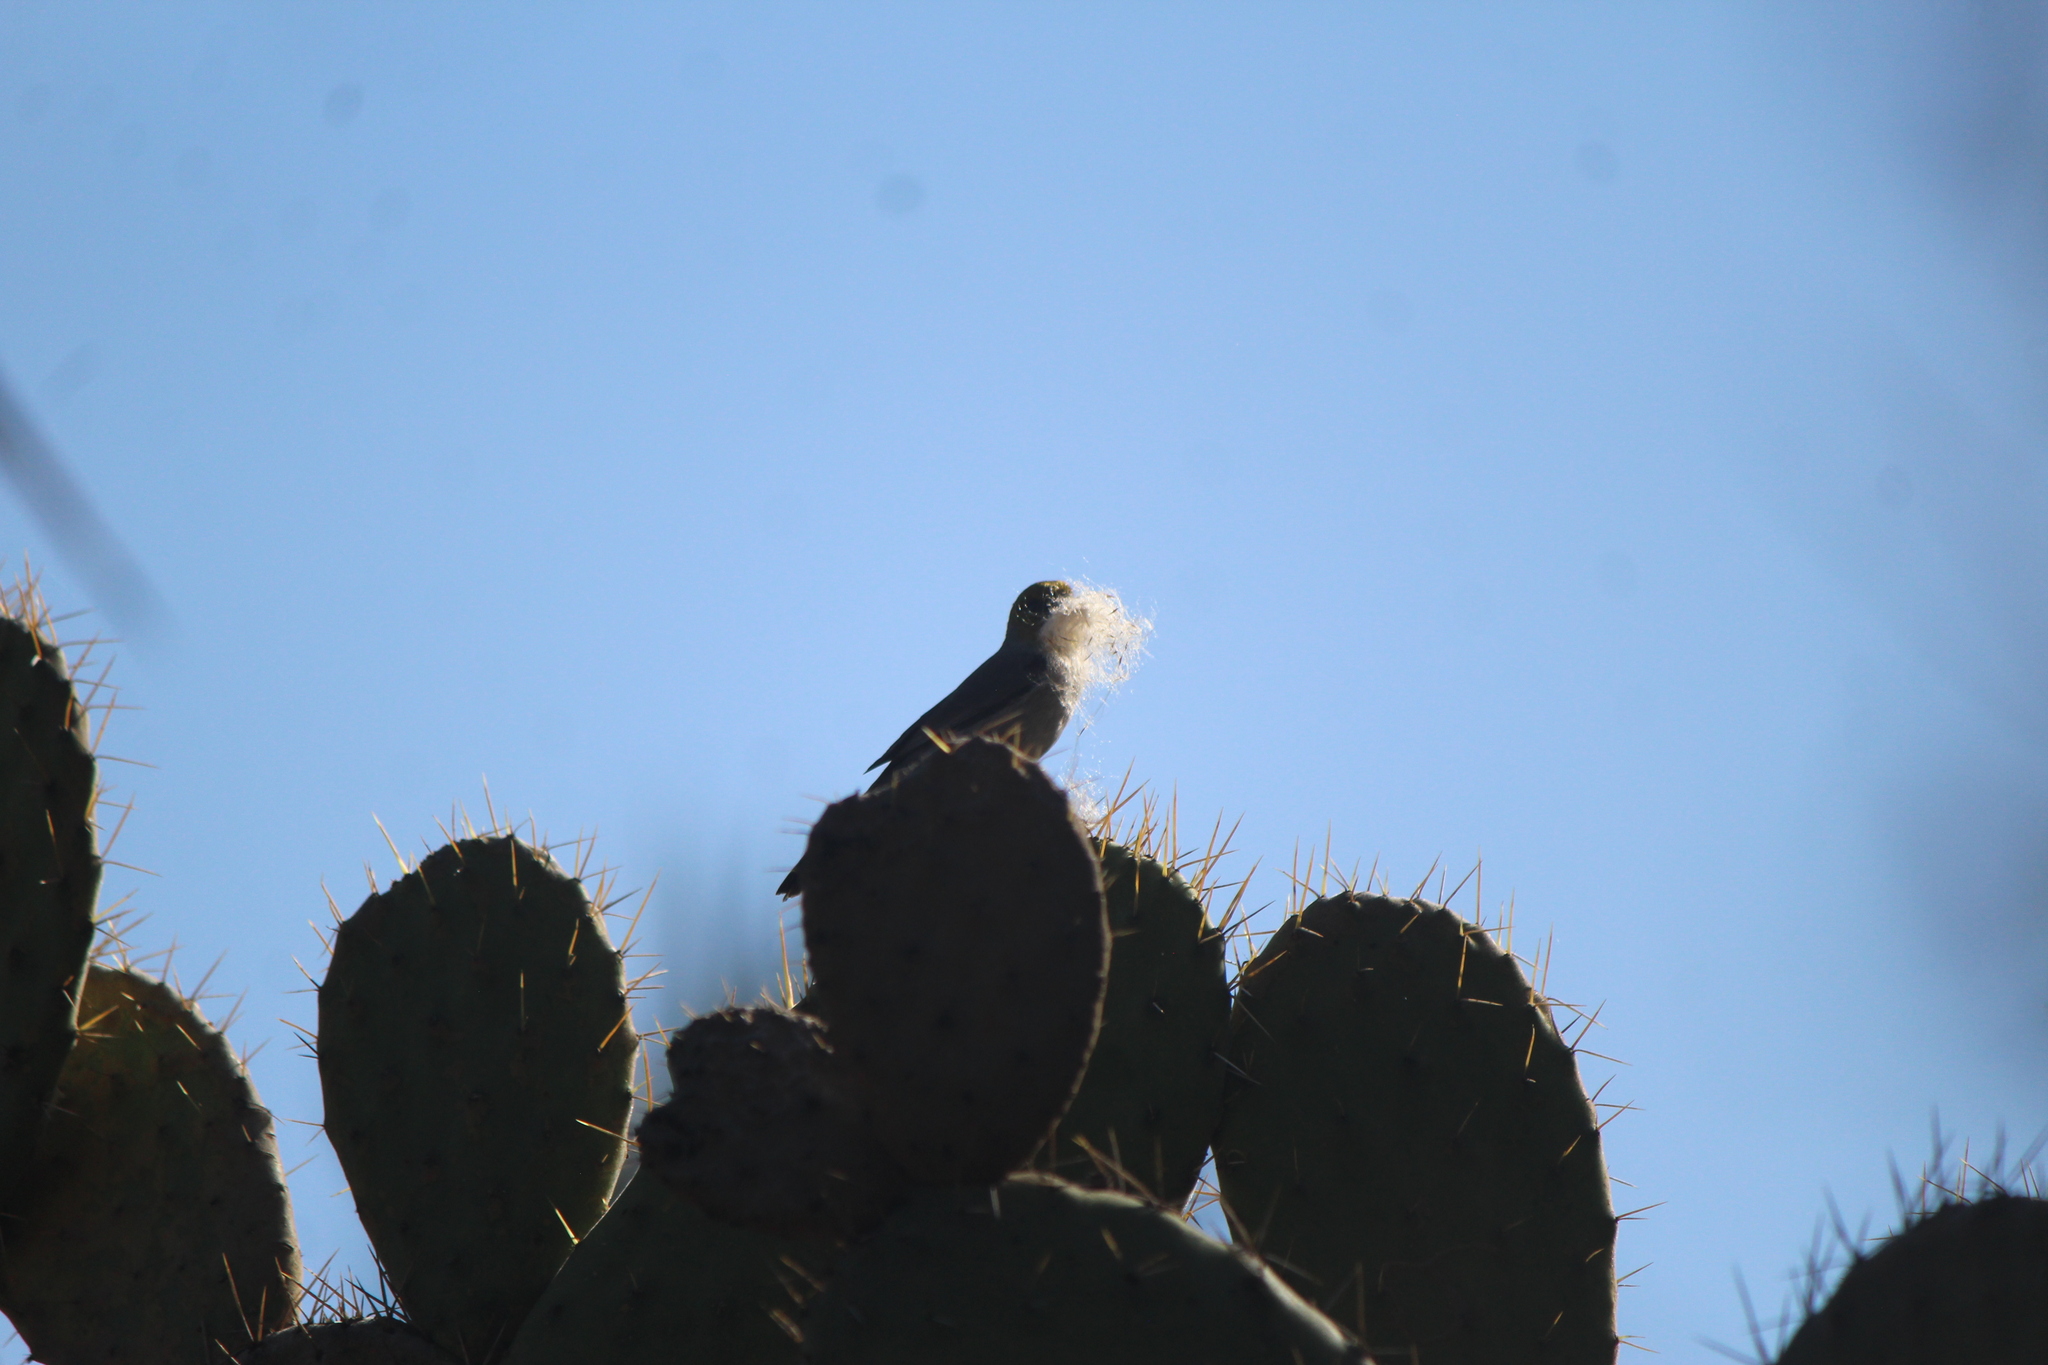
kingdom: Animalia
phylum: Chordata
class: Aves
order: Passeriformes
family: Remizidae
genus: Auriparus
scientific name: Auriparus flaviceps
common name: Verdin
